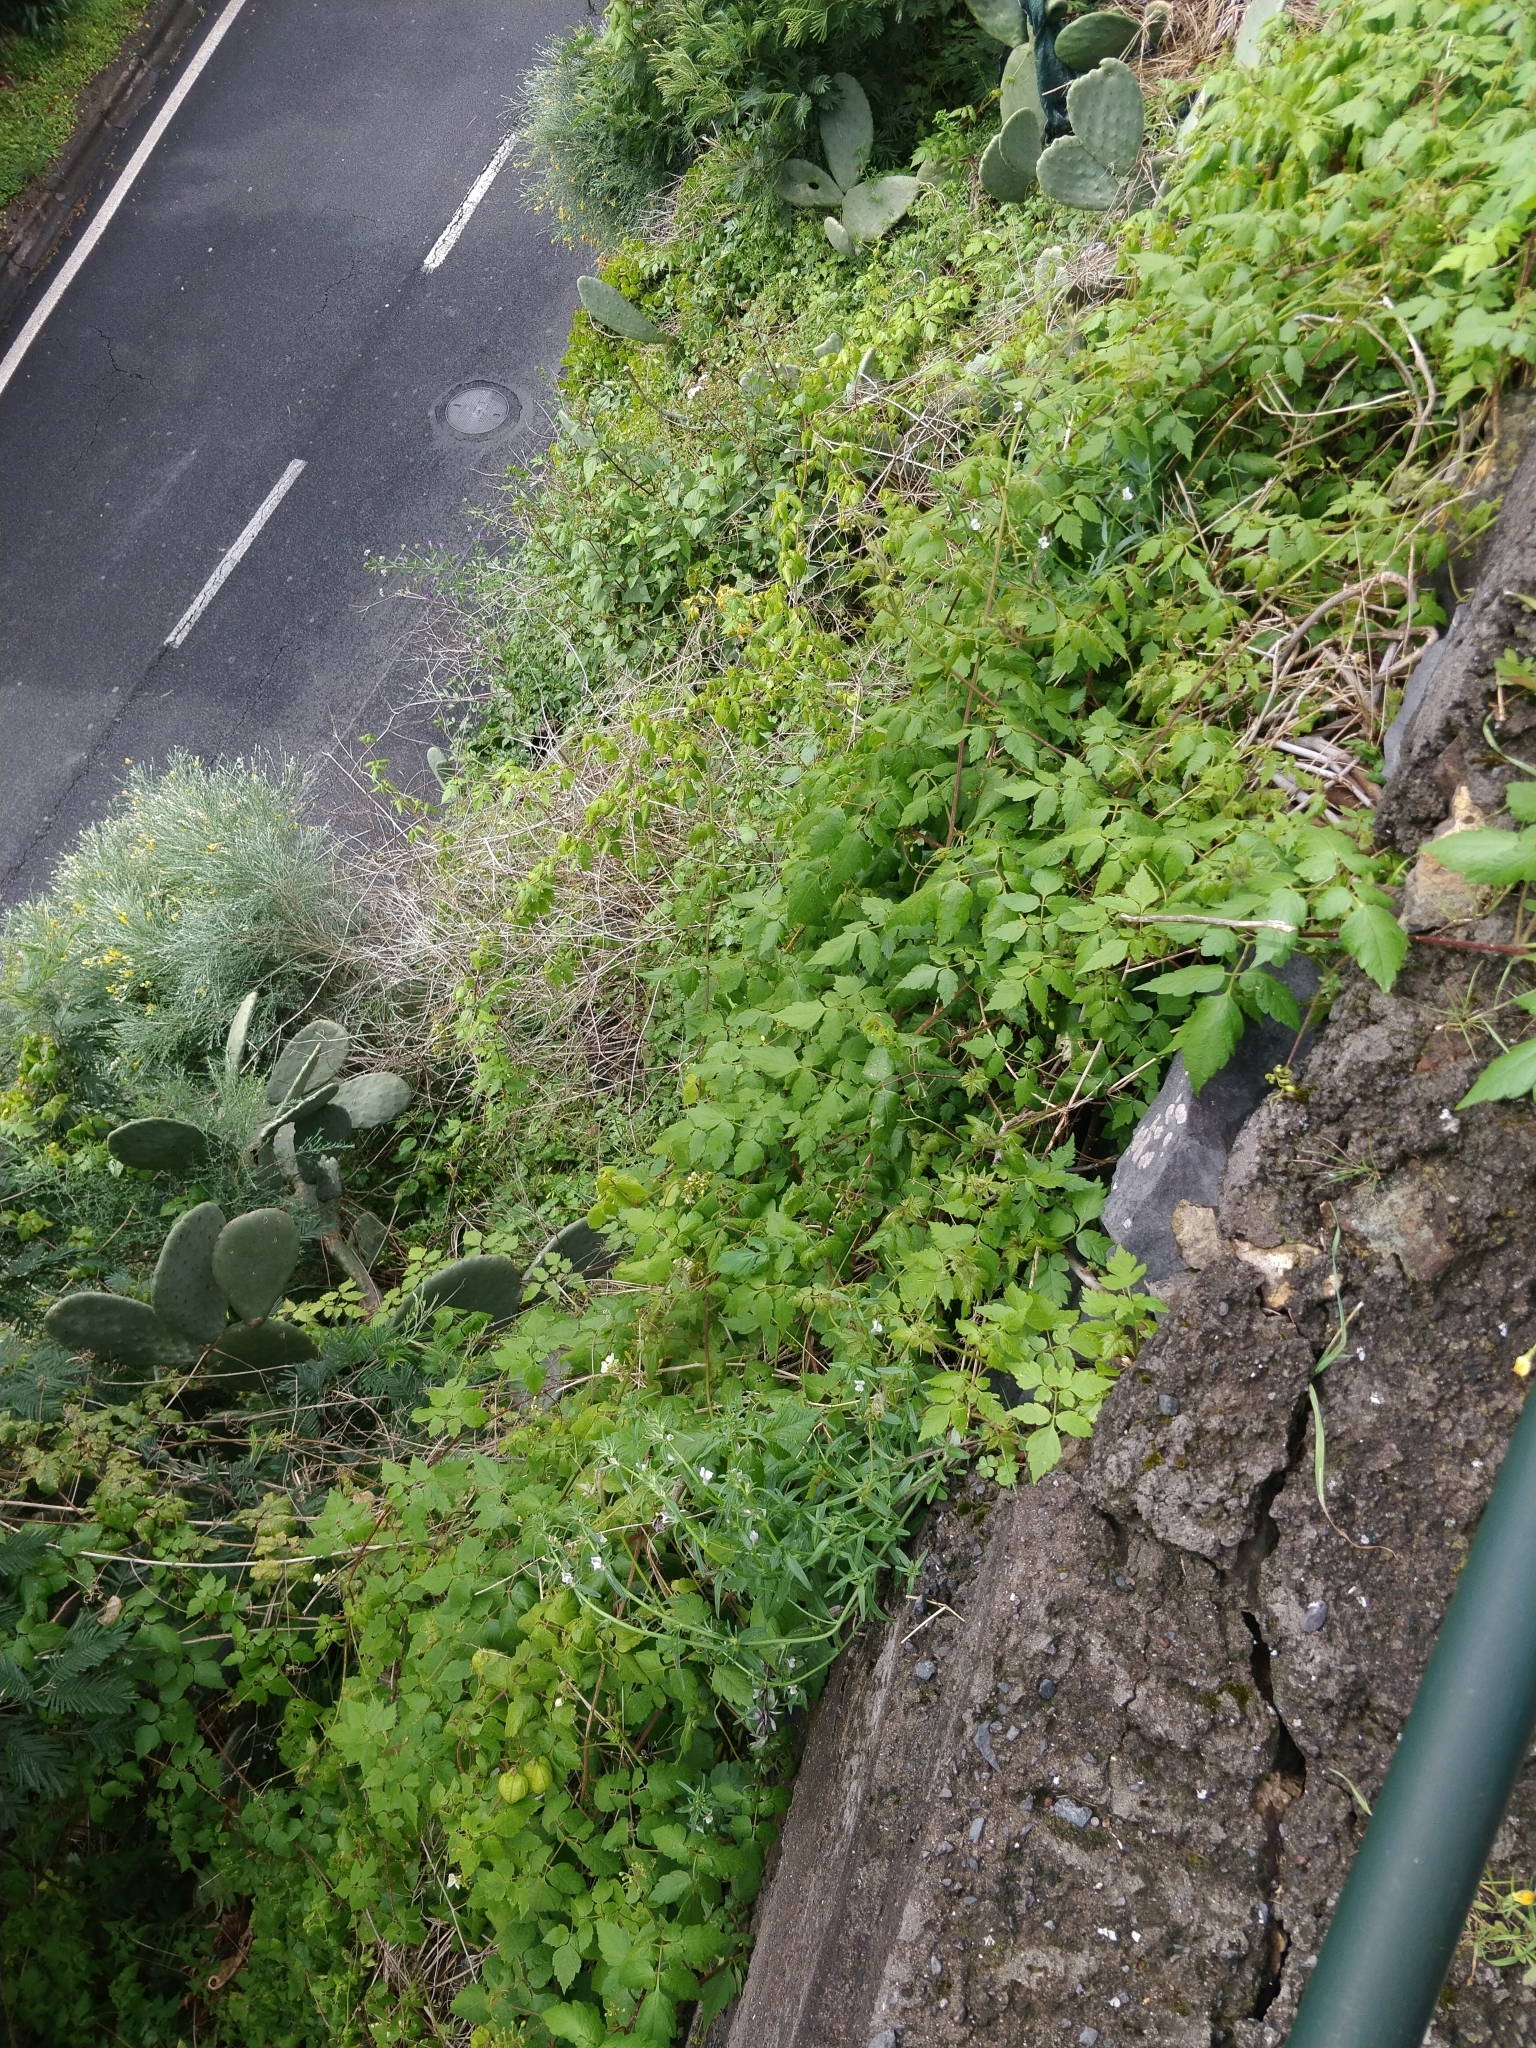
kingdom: Plantae
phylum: Tracheophyta
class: Magnoliopsida
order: Sapindales
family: Sapindaceae
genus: Cardiospermum
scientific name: Cardiospermum grandiflorum
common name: Balloon vine
